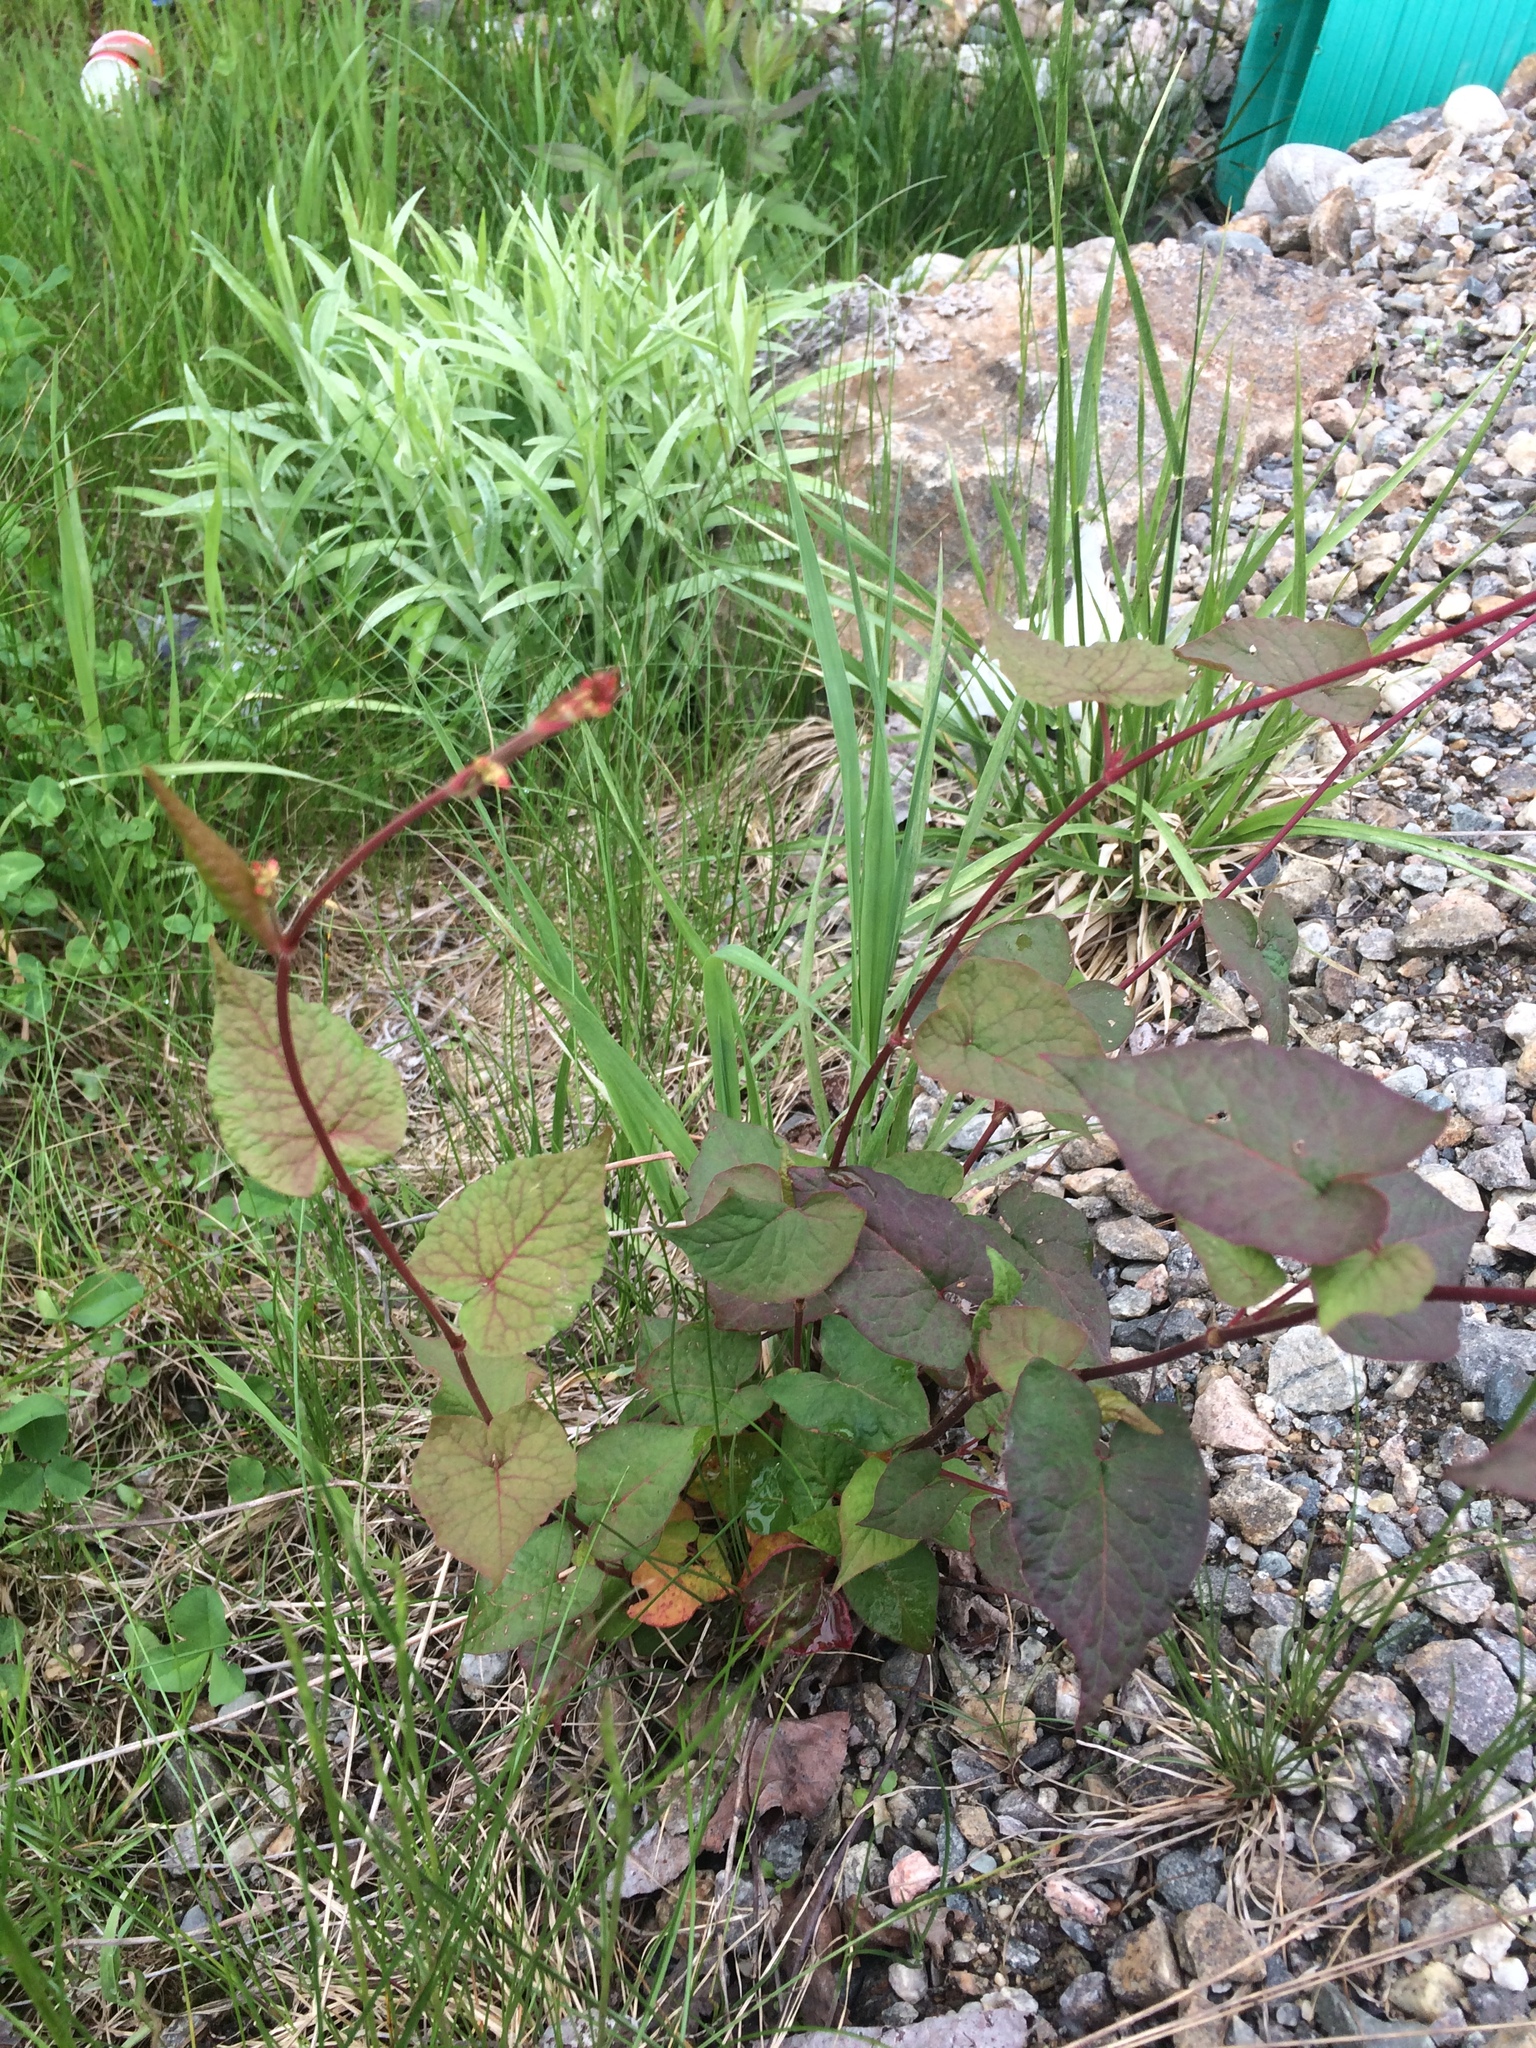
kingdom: Plantae
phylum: Tracheophyta
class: Magnoliopsida
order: Caryophyllales
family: Polygonaceae
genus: Parogonum
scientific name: Parogonum ciliinode
